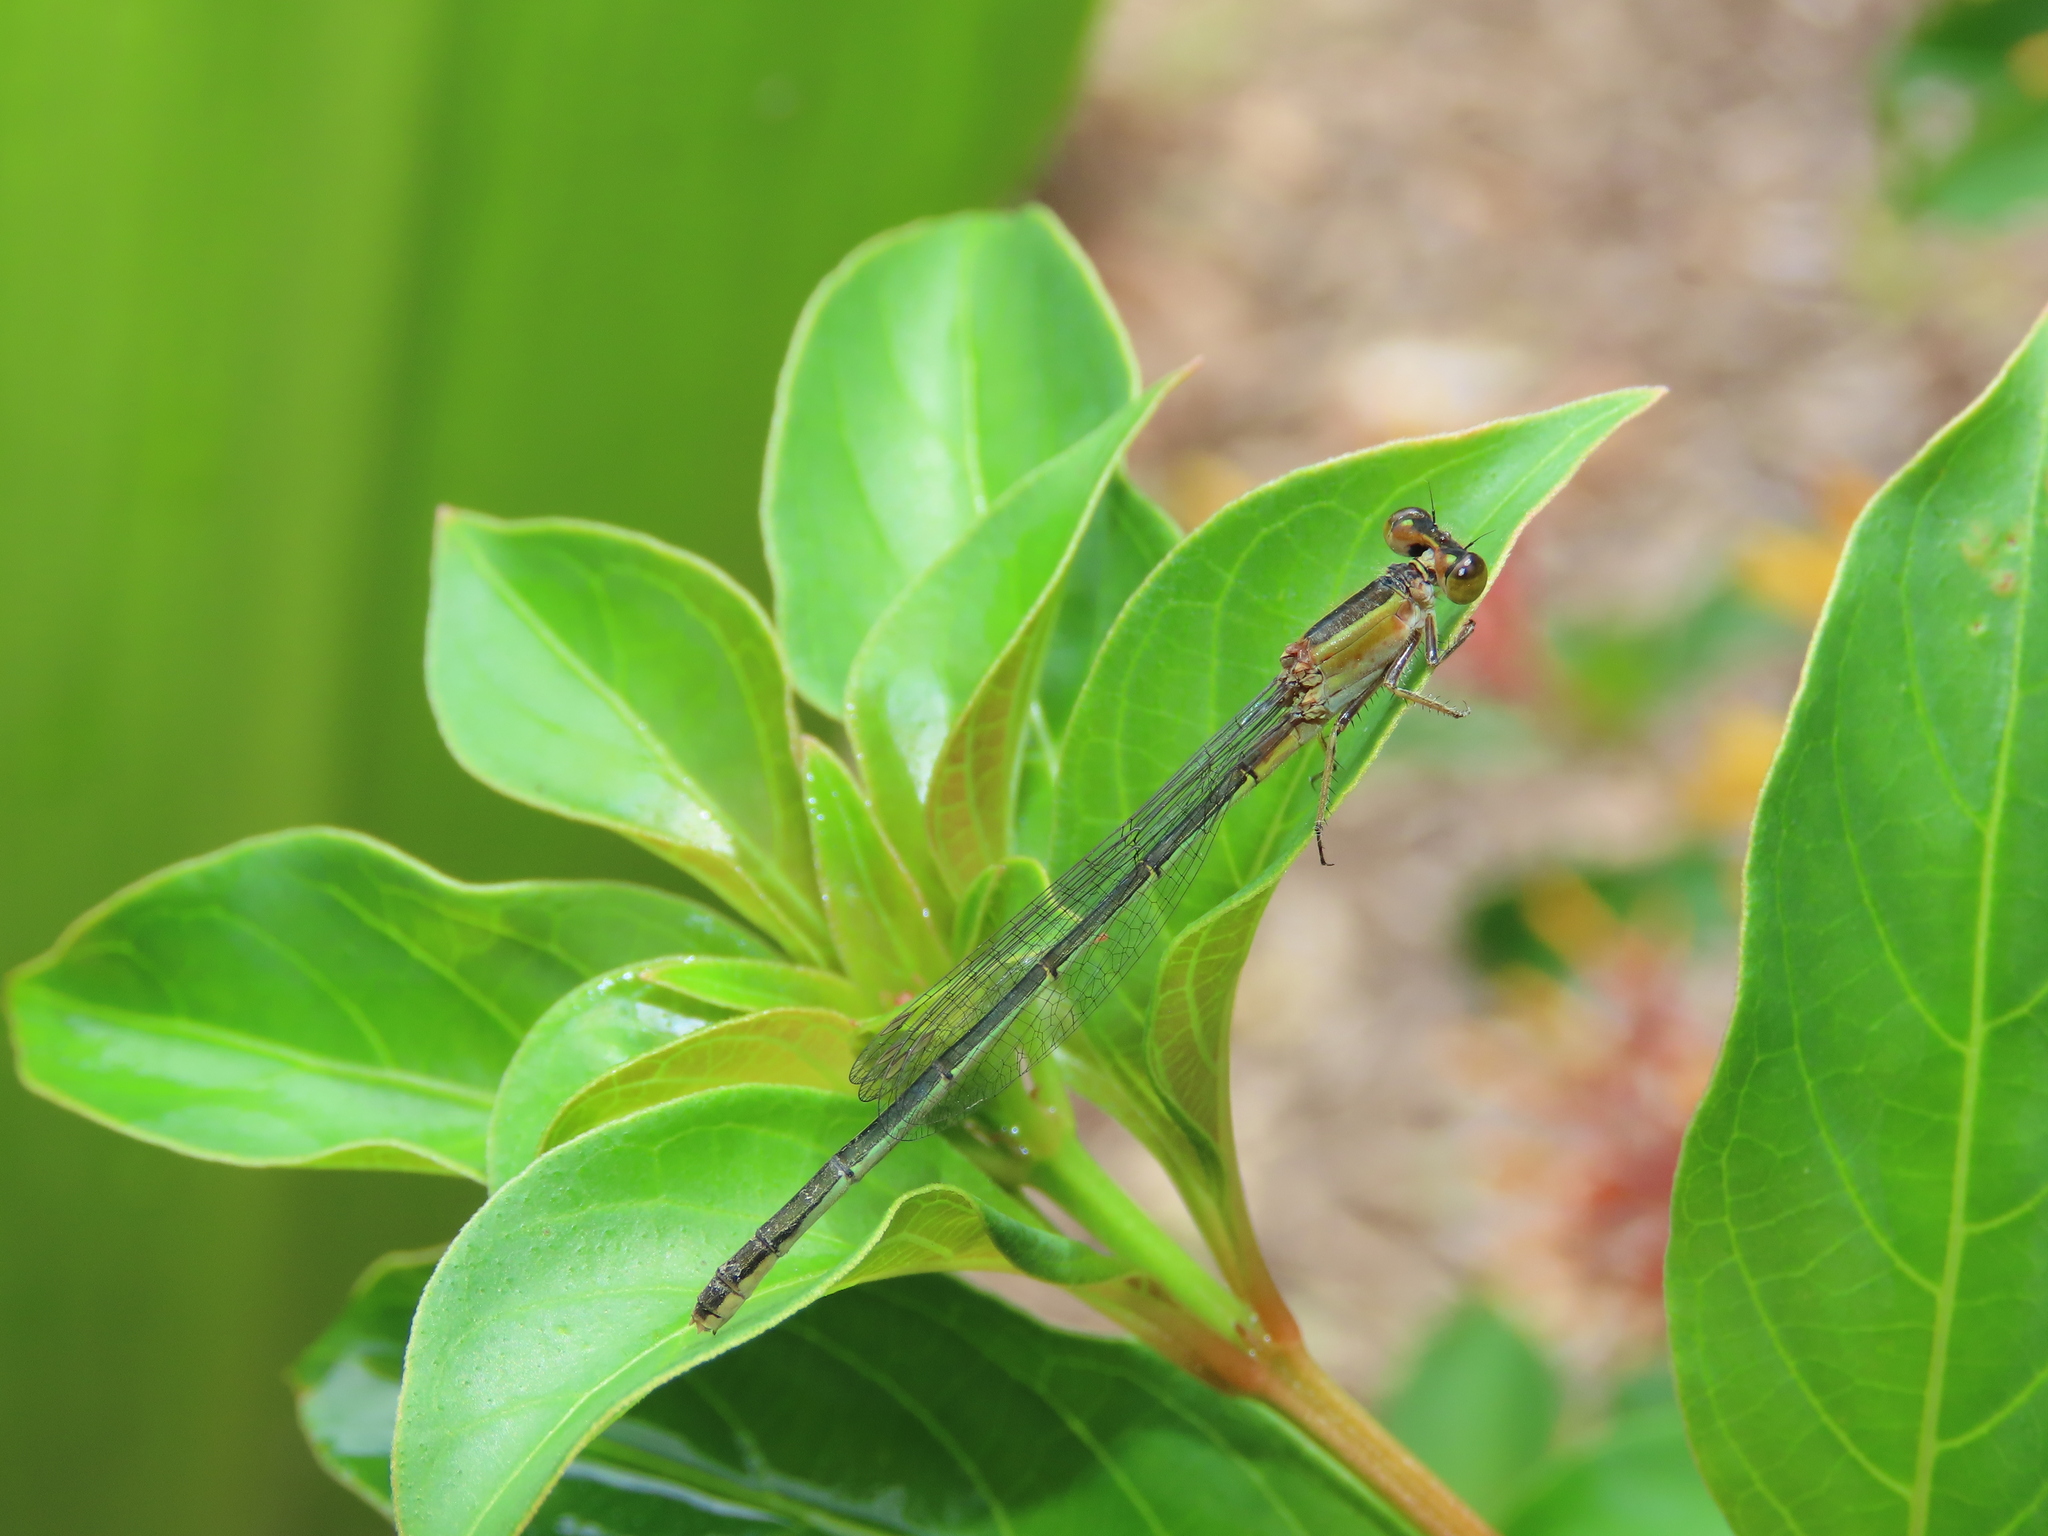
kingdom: Animalia
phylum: Arthropoda
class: Insecta
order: Odonata
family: Coenagrionidae
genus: Ischnura
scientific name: Ischnura ramburii
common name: Rambur's forktail
